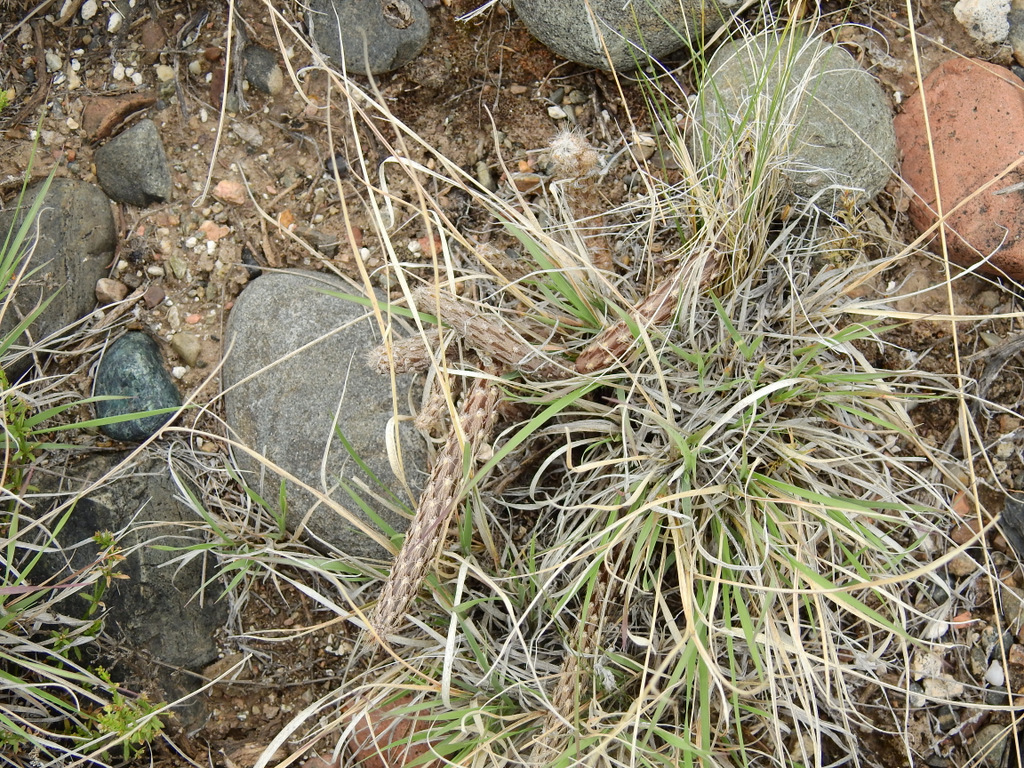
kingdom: Plantae
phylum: Tracheophyta
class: Magnoliopsida
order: Caryophyllales
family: Cactaceae
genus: Pterocactus
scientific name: Pterocactus tuberosus
